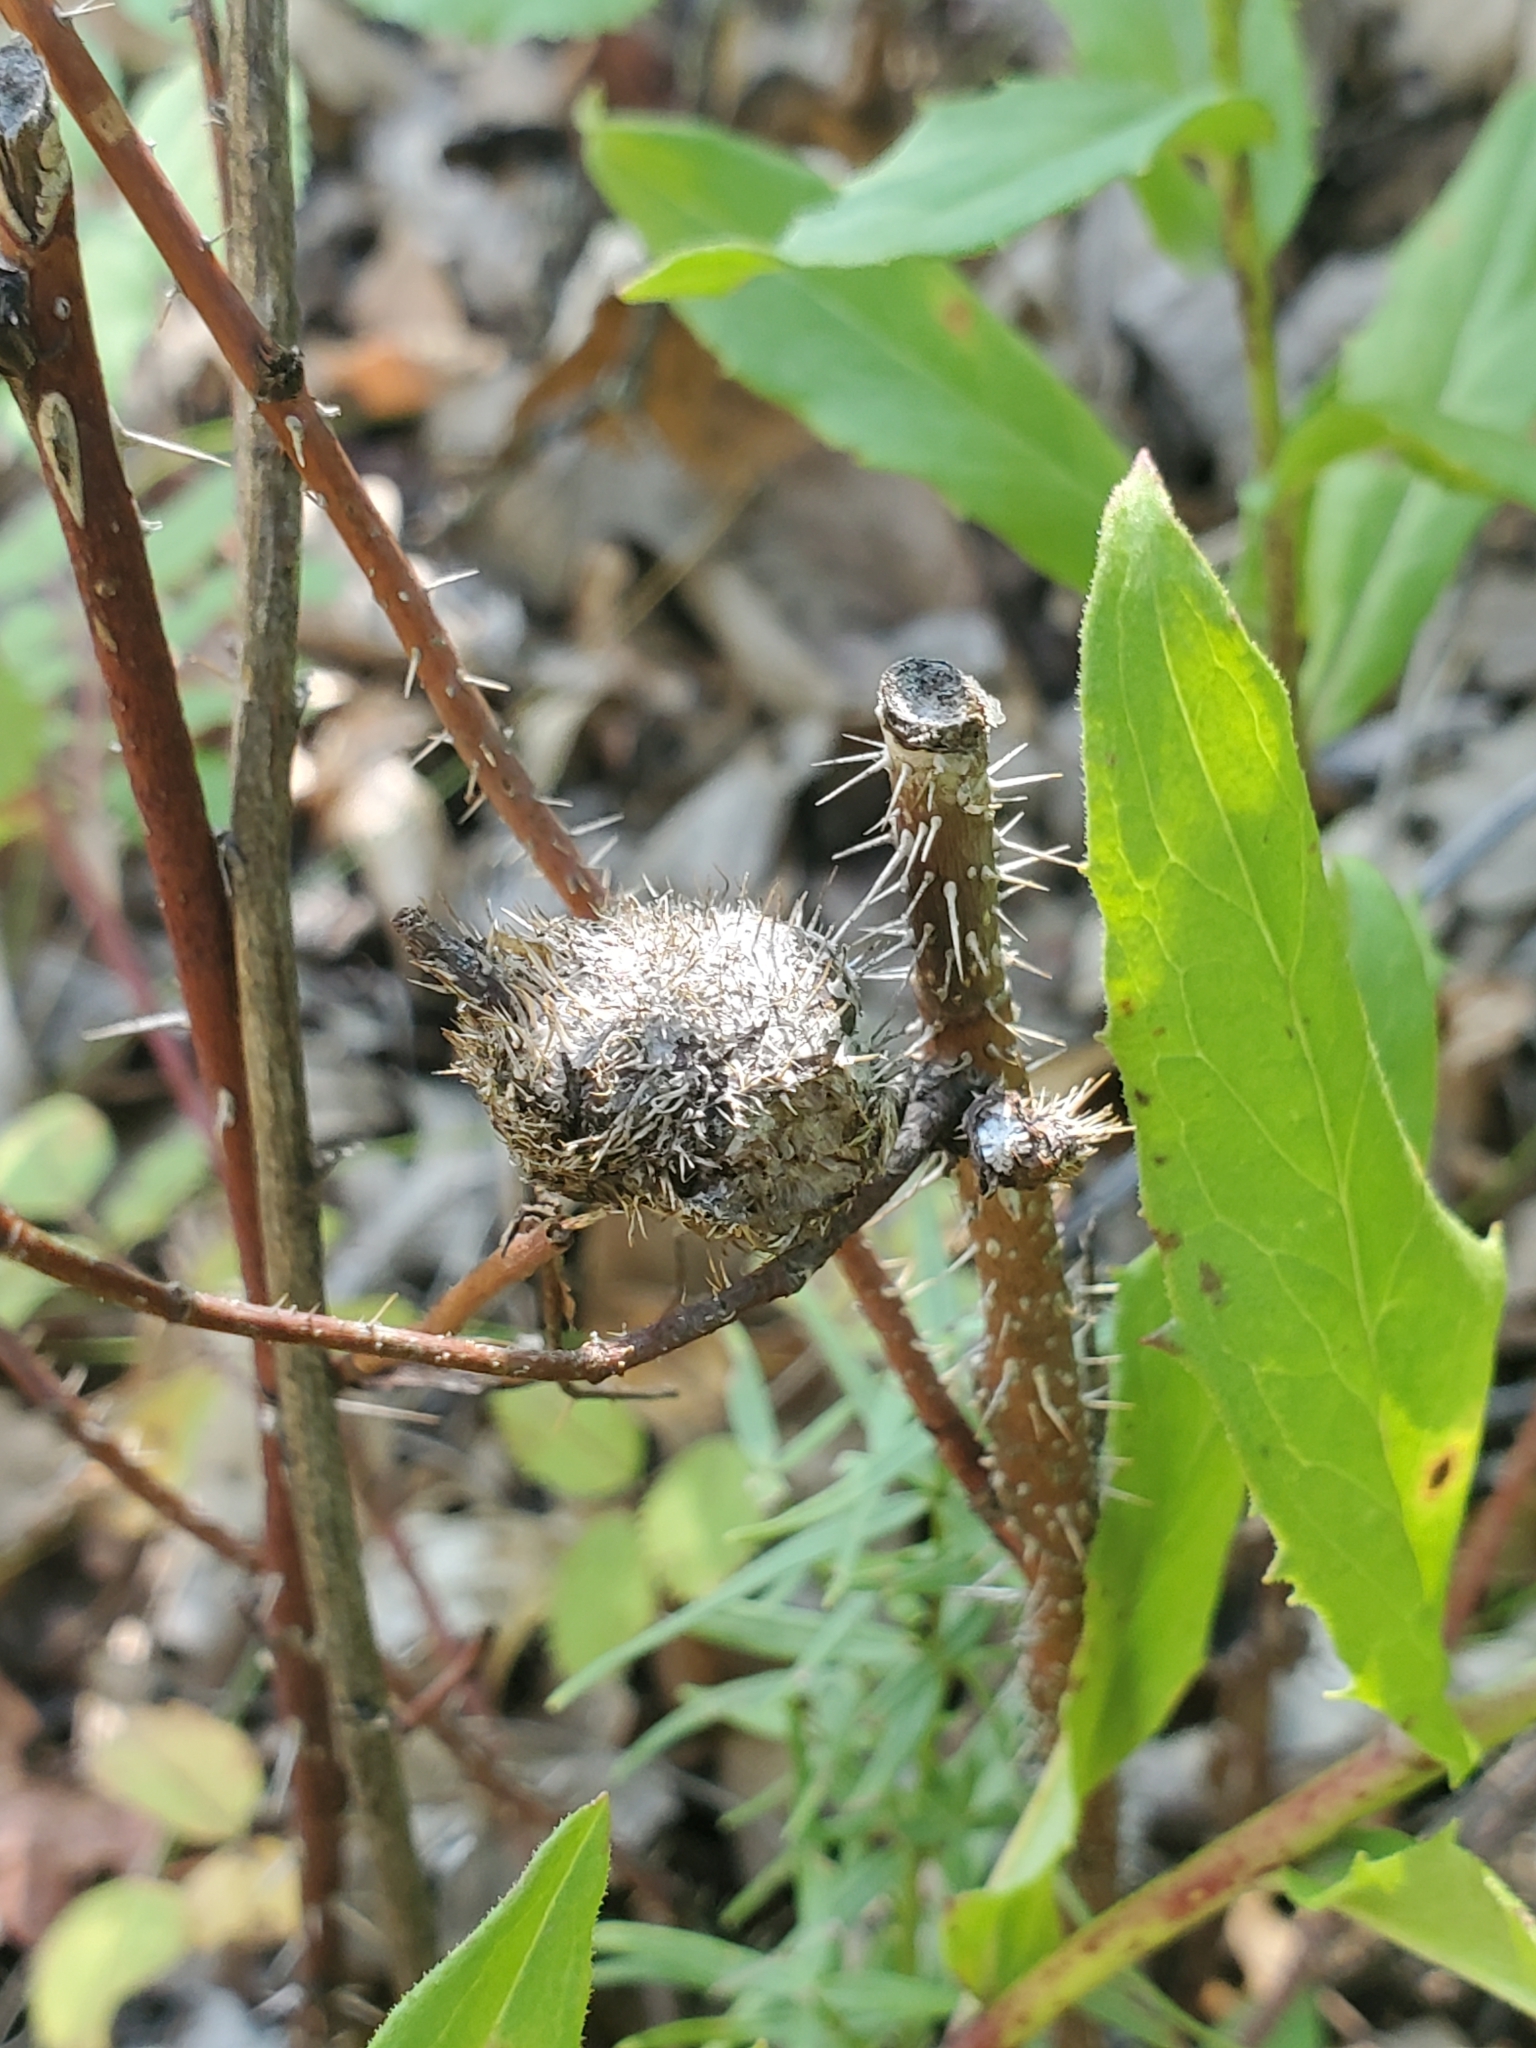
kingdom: Animalia
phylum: Arthropoda
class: Insecta
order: Hymenoptera
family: Cynipidae
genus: Diplolepis
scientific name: Diplolepis spinosa
